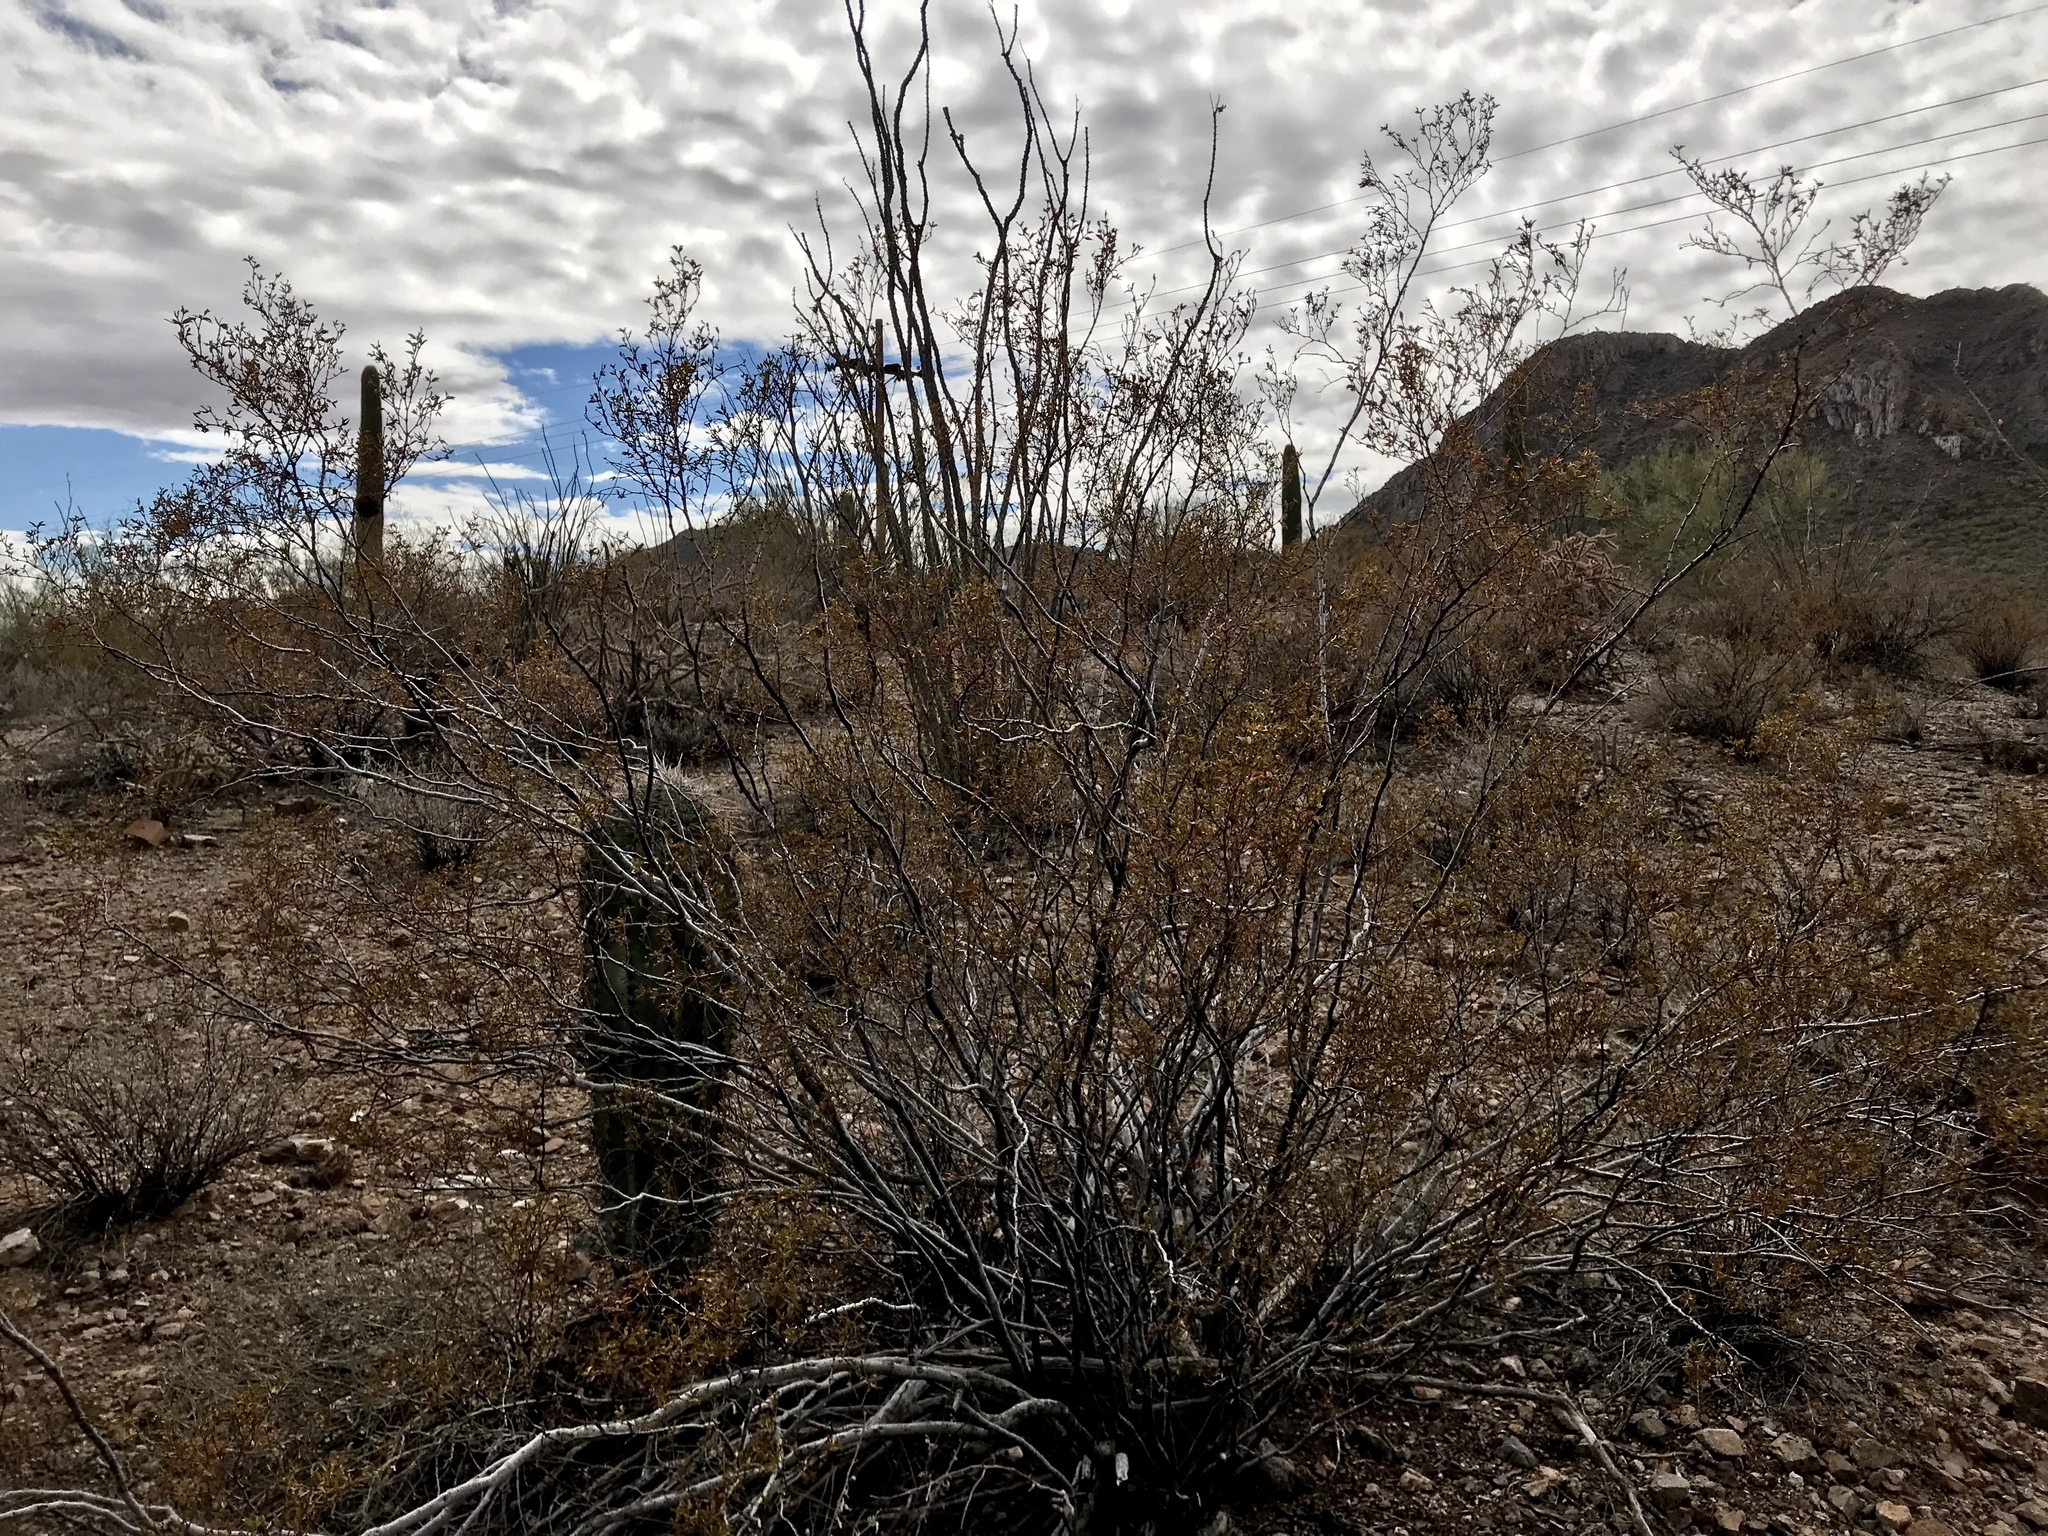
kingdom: Plantae
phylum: Tracheophyta
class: Magnoliopsida
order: Zygophyllales
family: Zygophyllaceae
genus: Larrea
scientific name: Larrea tridentata
